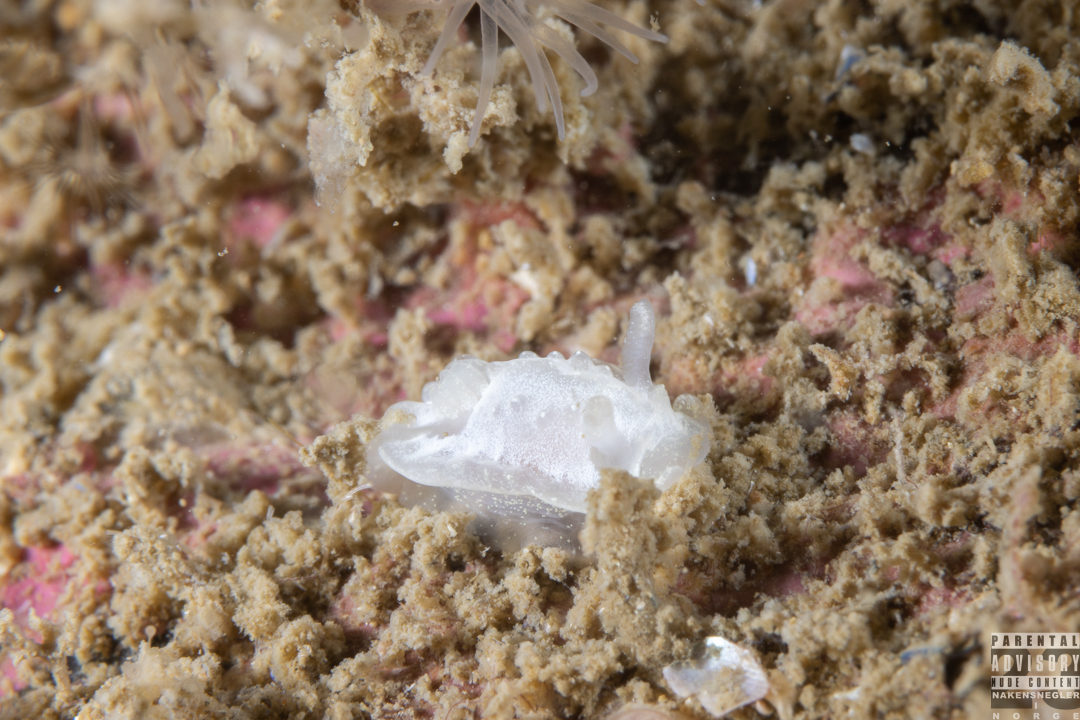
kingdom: Animalia
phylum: Mollusca
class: Gastropoda
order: Nudibranchia
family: Goniodorididae
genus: Okenia
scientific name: Okenia
